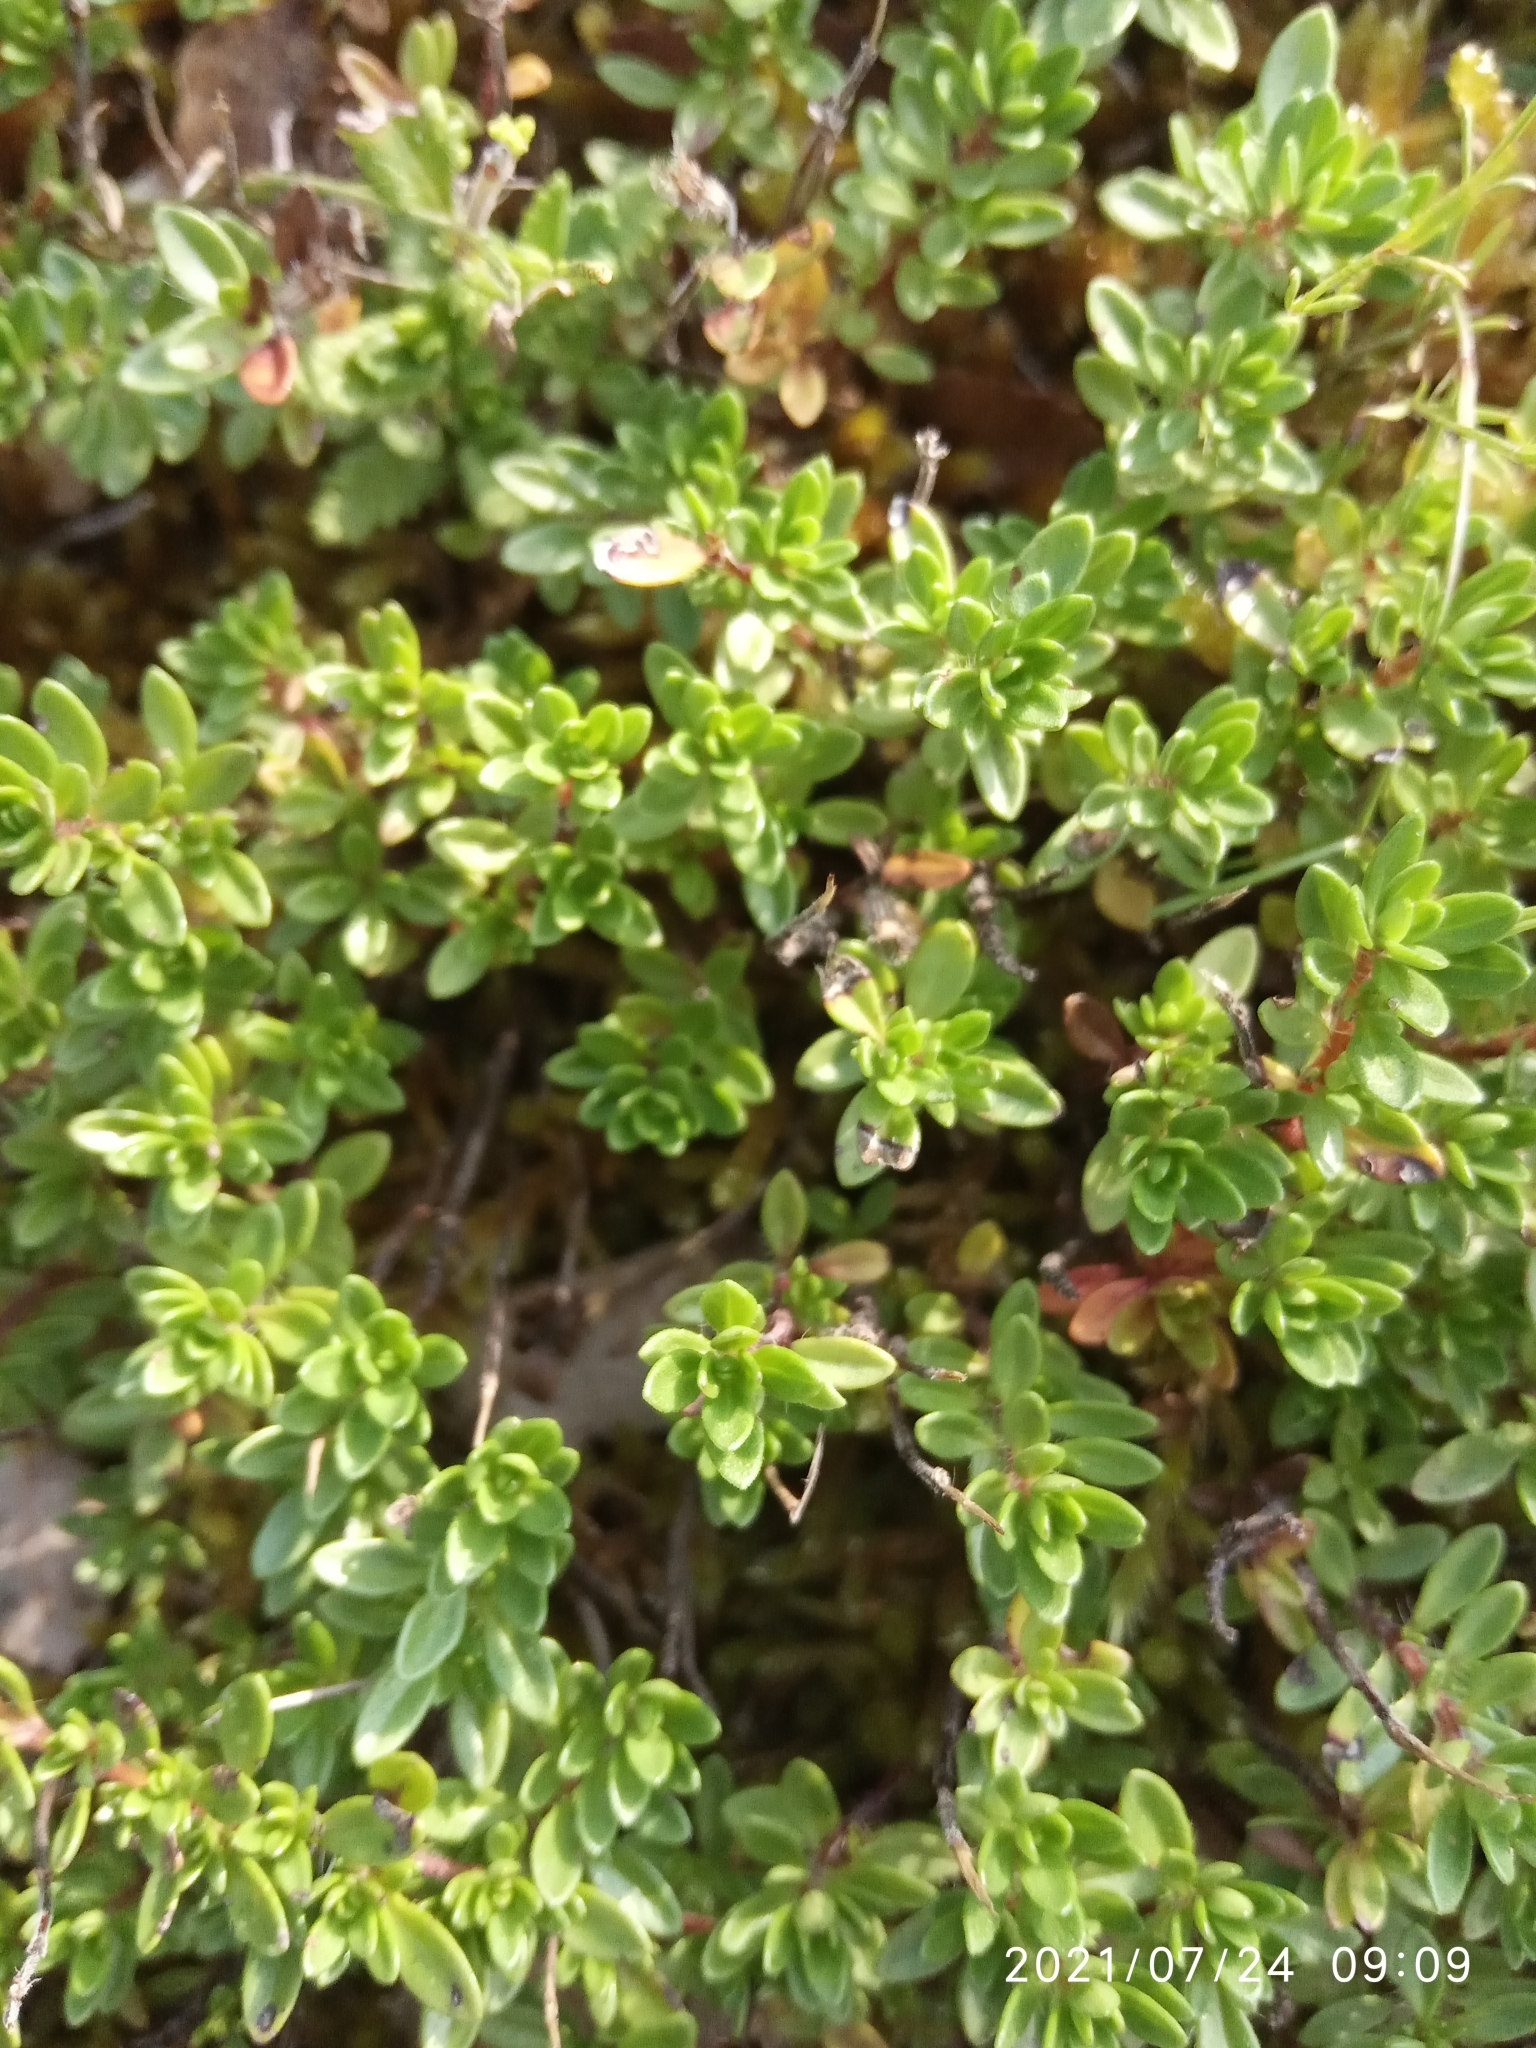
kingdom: Plantae
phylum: Tracheophyta
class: Magnoliopsida
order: Lamiales
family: Lamiaceae
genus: Teucrium
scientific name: Teucrium chamaedrys
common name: Wall germander
